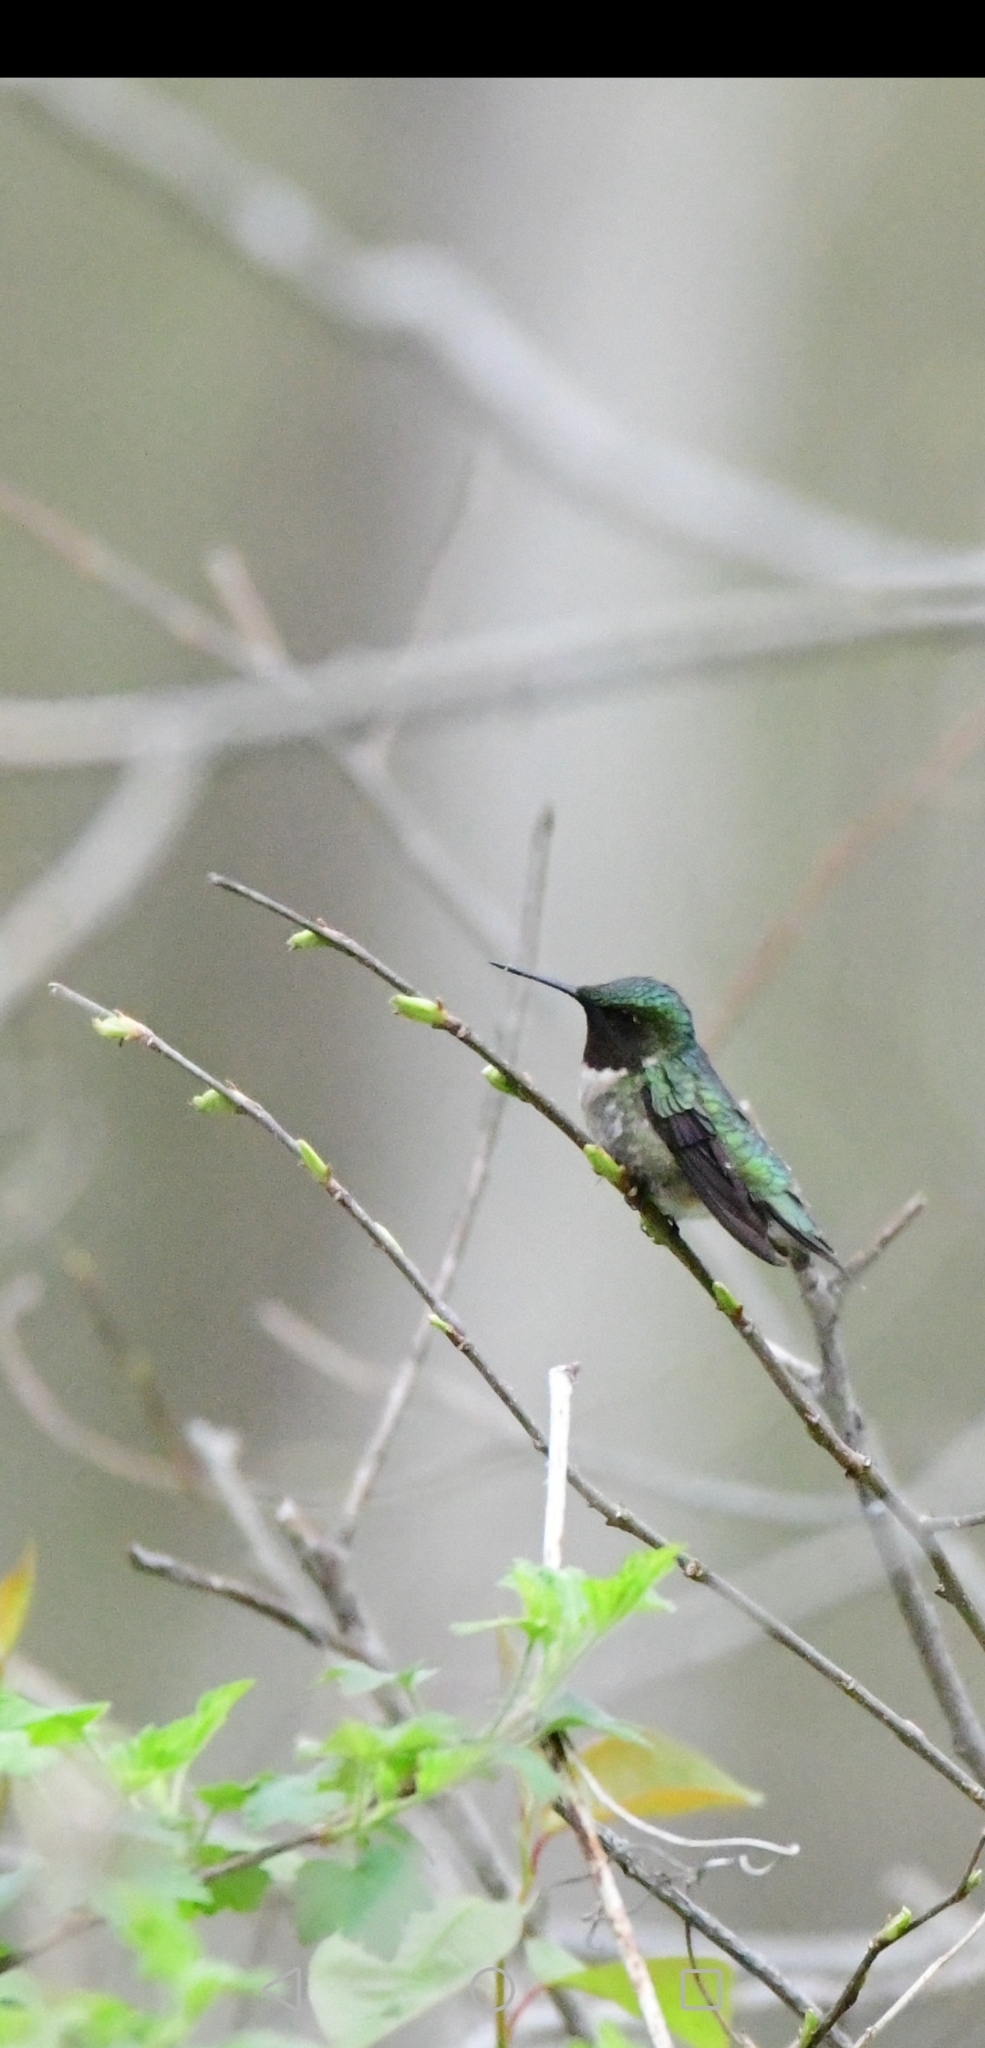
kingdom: Animalia
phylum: Chordata
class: Aves
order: Apodiformes
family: Trochilidae
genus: Archilochus
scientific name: Archilochus colubris
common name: Ruby-throated hummingbird
